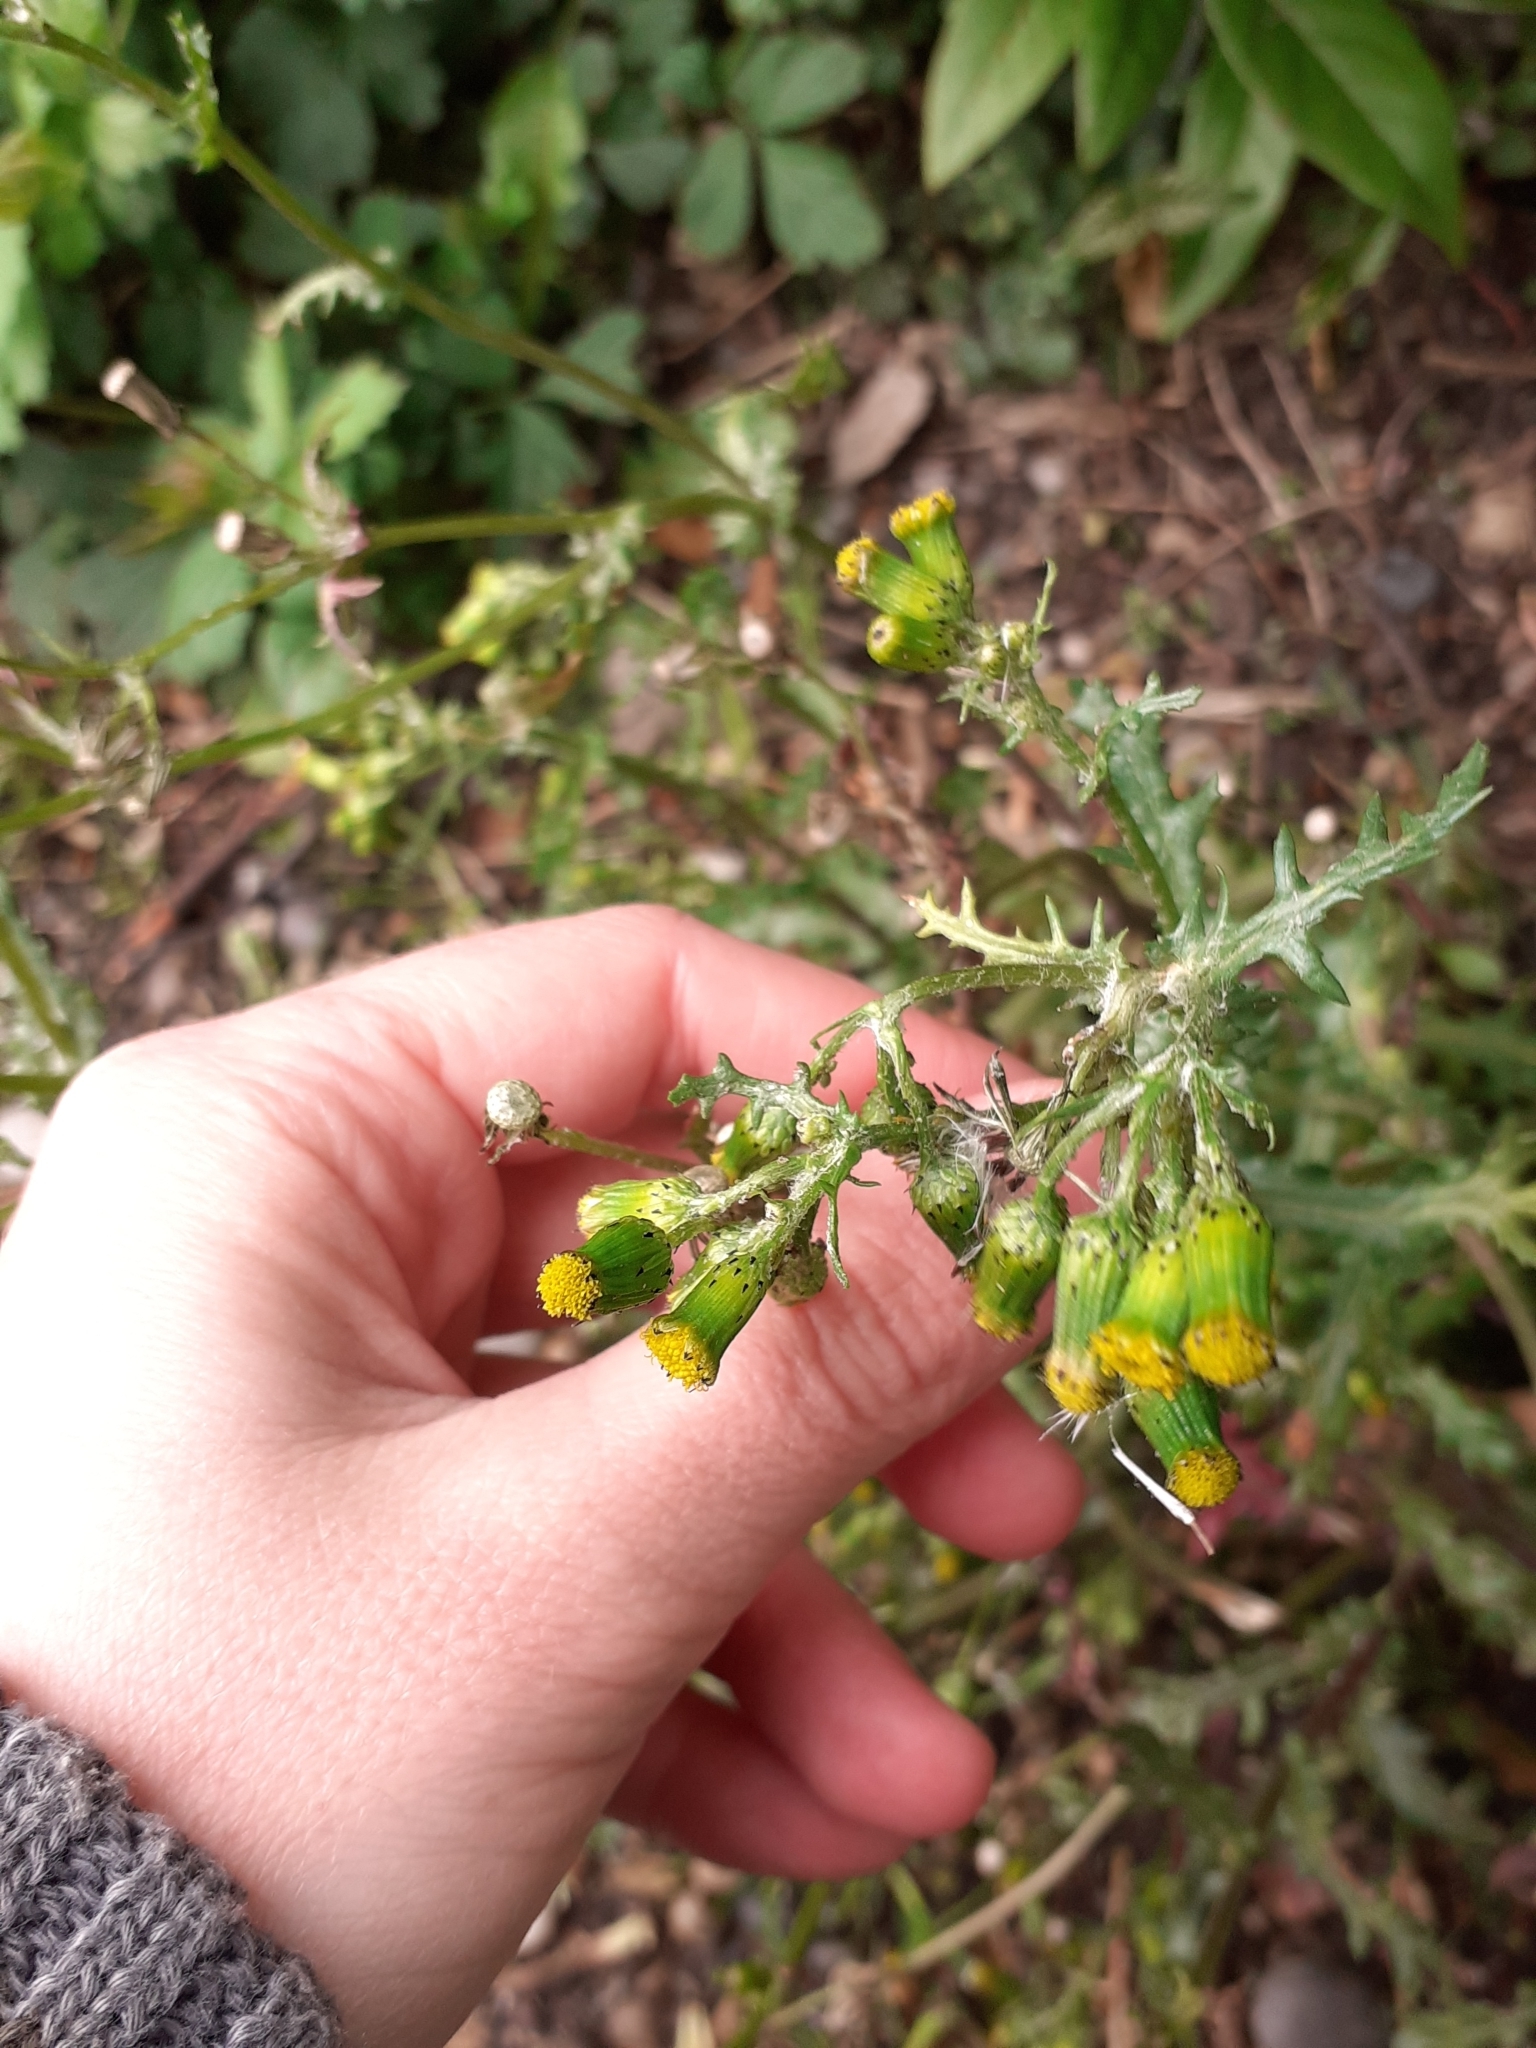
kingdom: Plantae
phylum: Tracheophyta
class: Magnoliopsida
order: Asterales
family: Asteraceae
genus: Senecio
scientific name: Senecio vulgaris
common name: Old-man-in-the-spring
